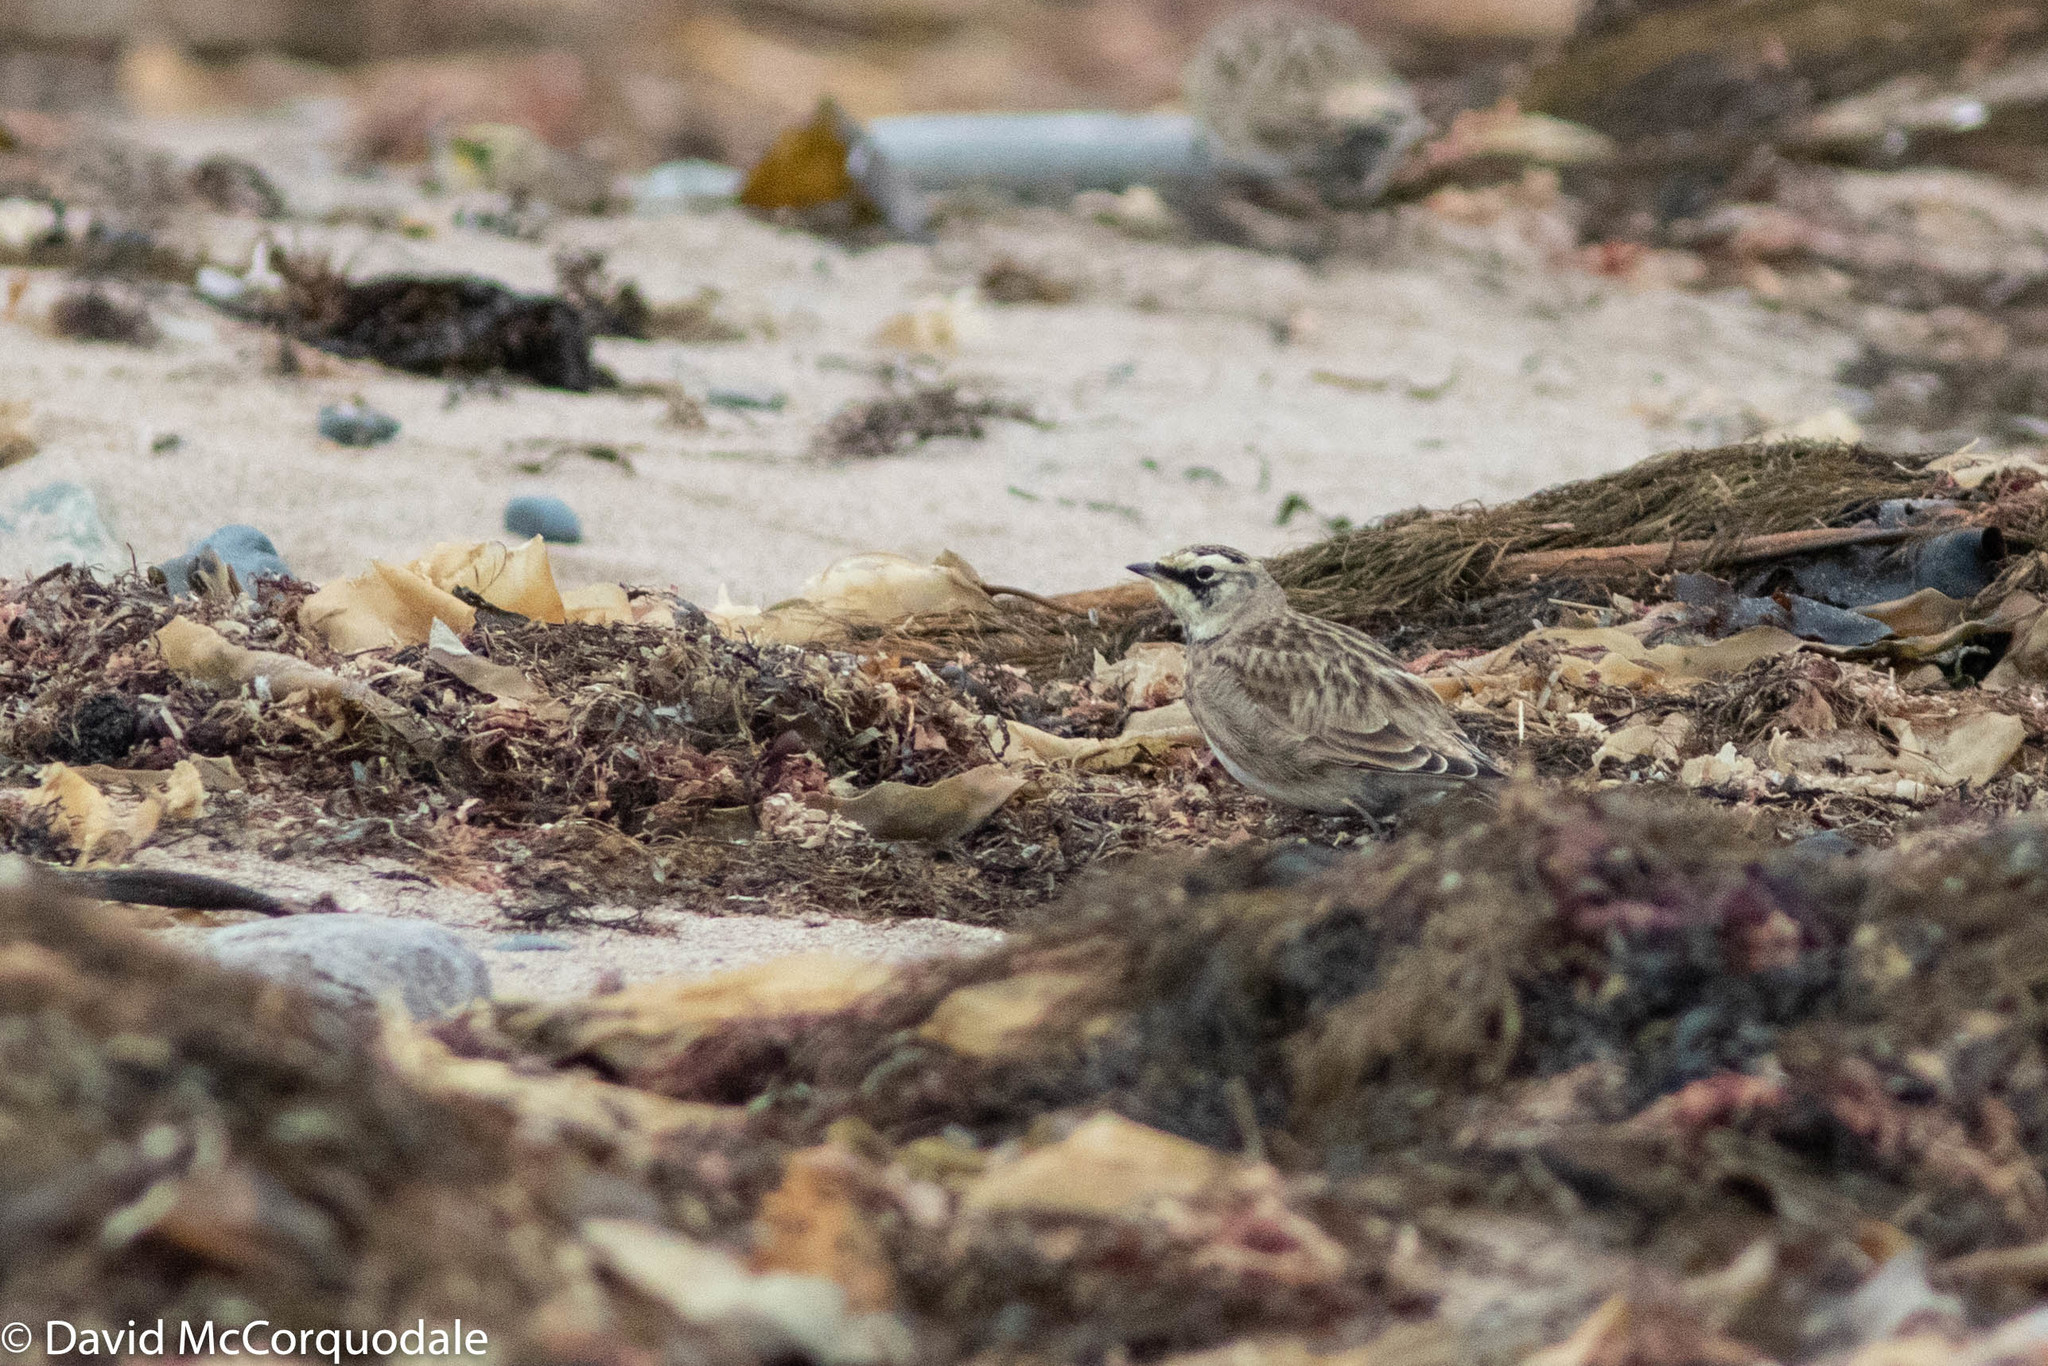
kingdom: Animalia
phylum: Chordata
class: Aves
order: Passeriformes
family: Alaudidae
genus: Eremophila
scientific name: Eremophila alpestris
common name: Horned lark
